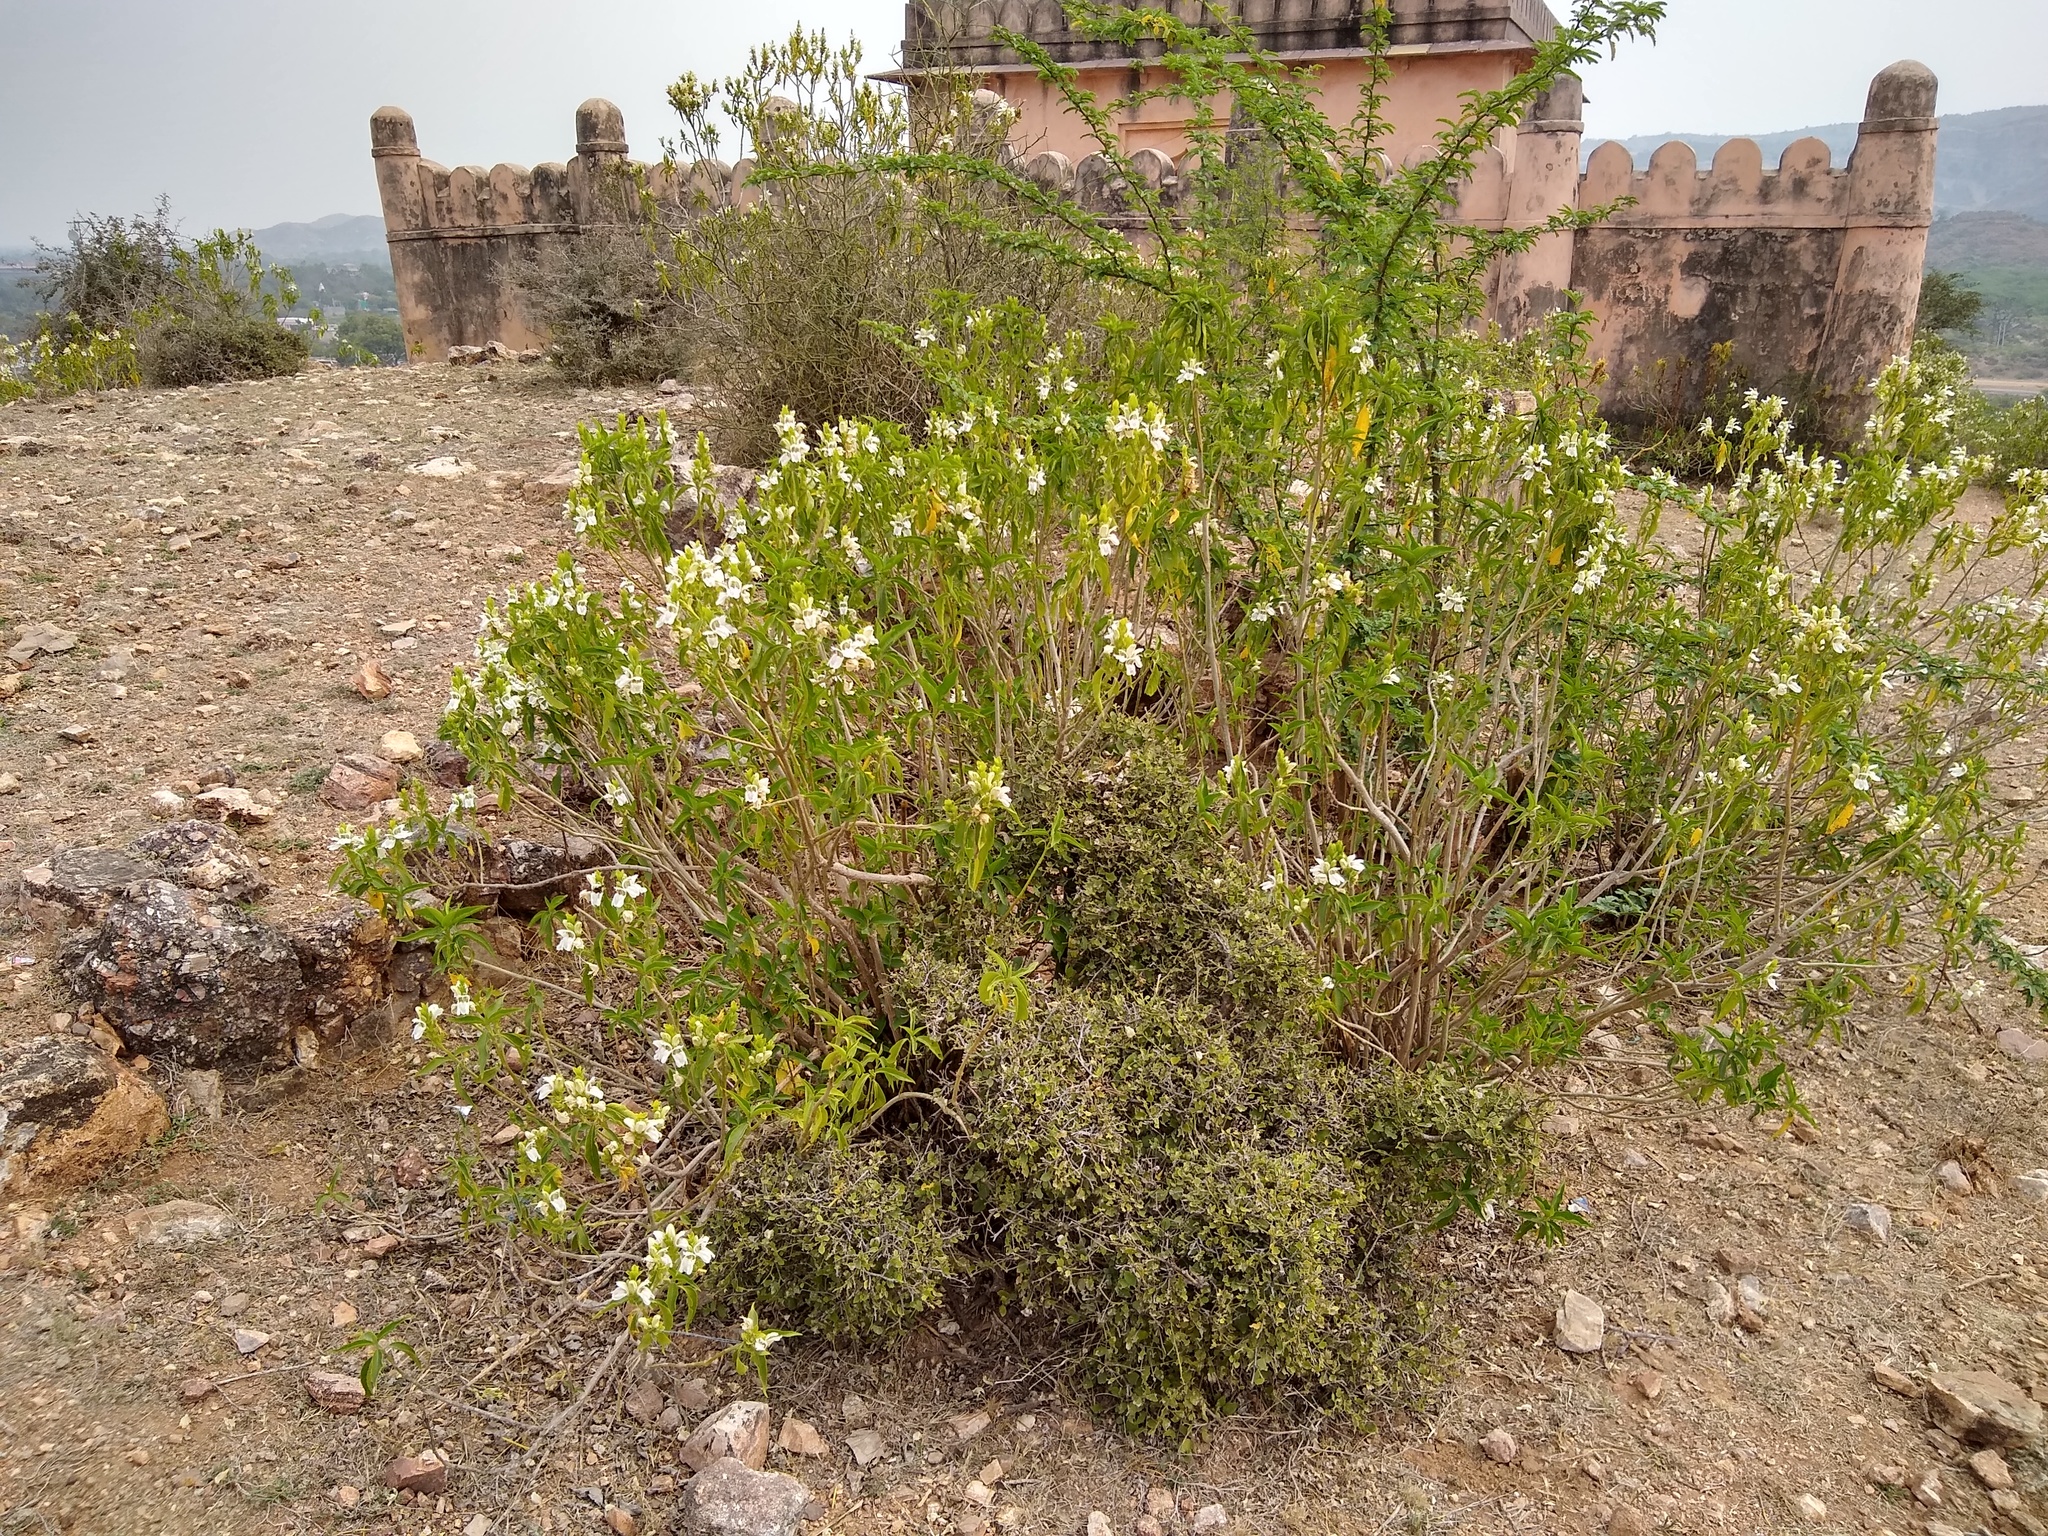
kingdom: Plantae
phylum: Tracheophyta
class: Magnoliopsida
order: Lamiales
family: Acanthaceae
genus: Justicia
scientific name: Justicia adhatoda
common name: Malabar nut
